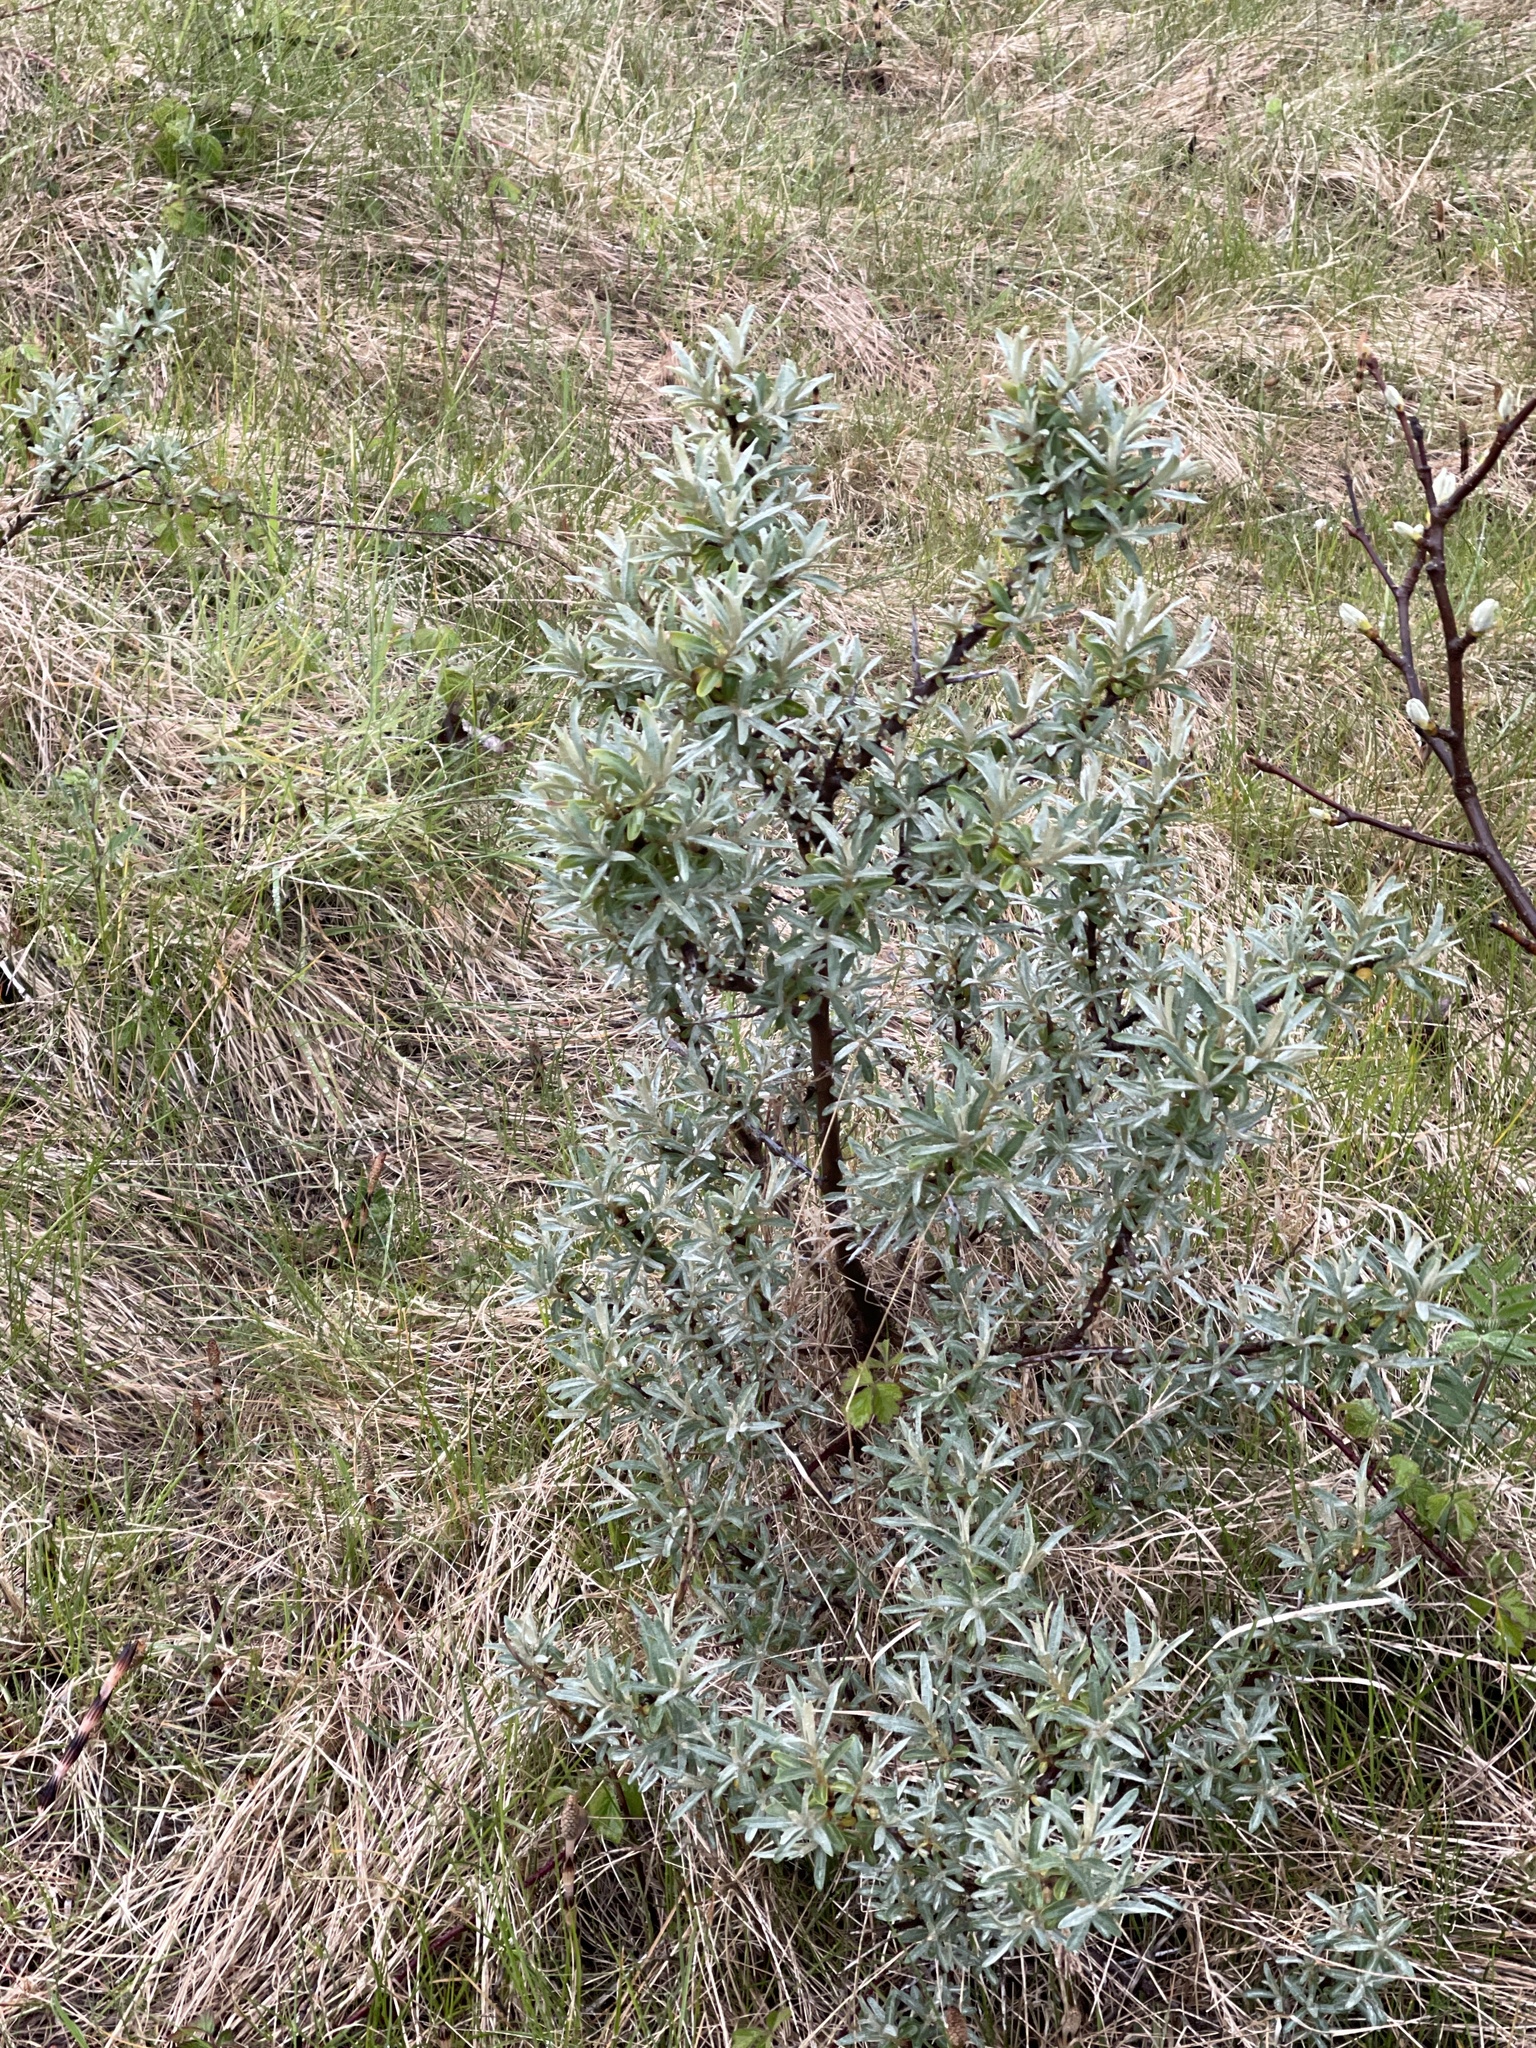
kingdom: Plantae
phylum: Tracheophyta
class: Magnoliopsida
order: Rosales
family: Elaeagnaceae
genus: Hippophae
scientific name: Hippophae rhamnoides
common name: Sea-buckthorn
